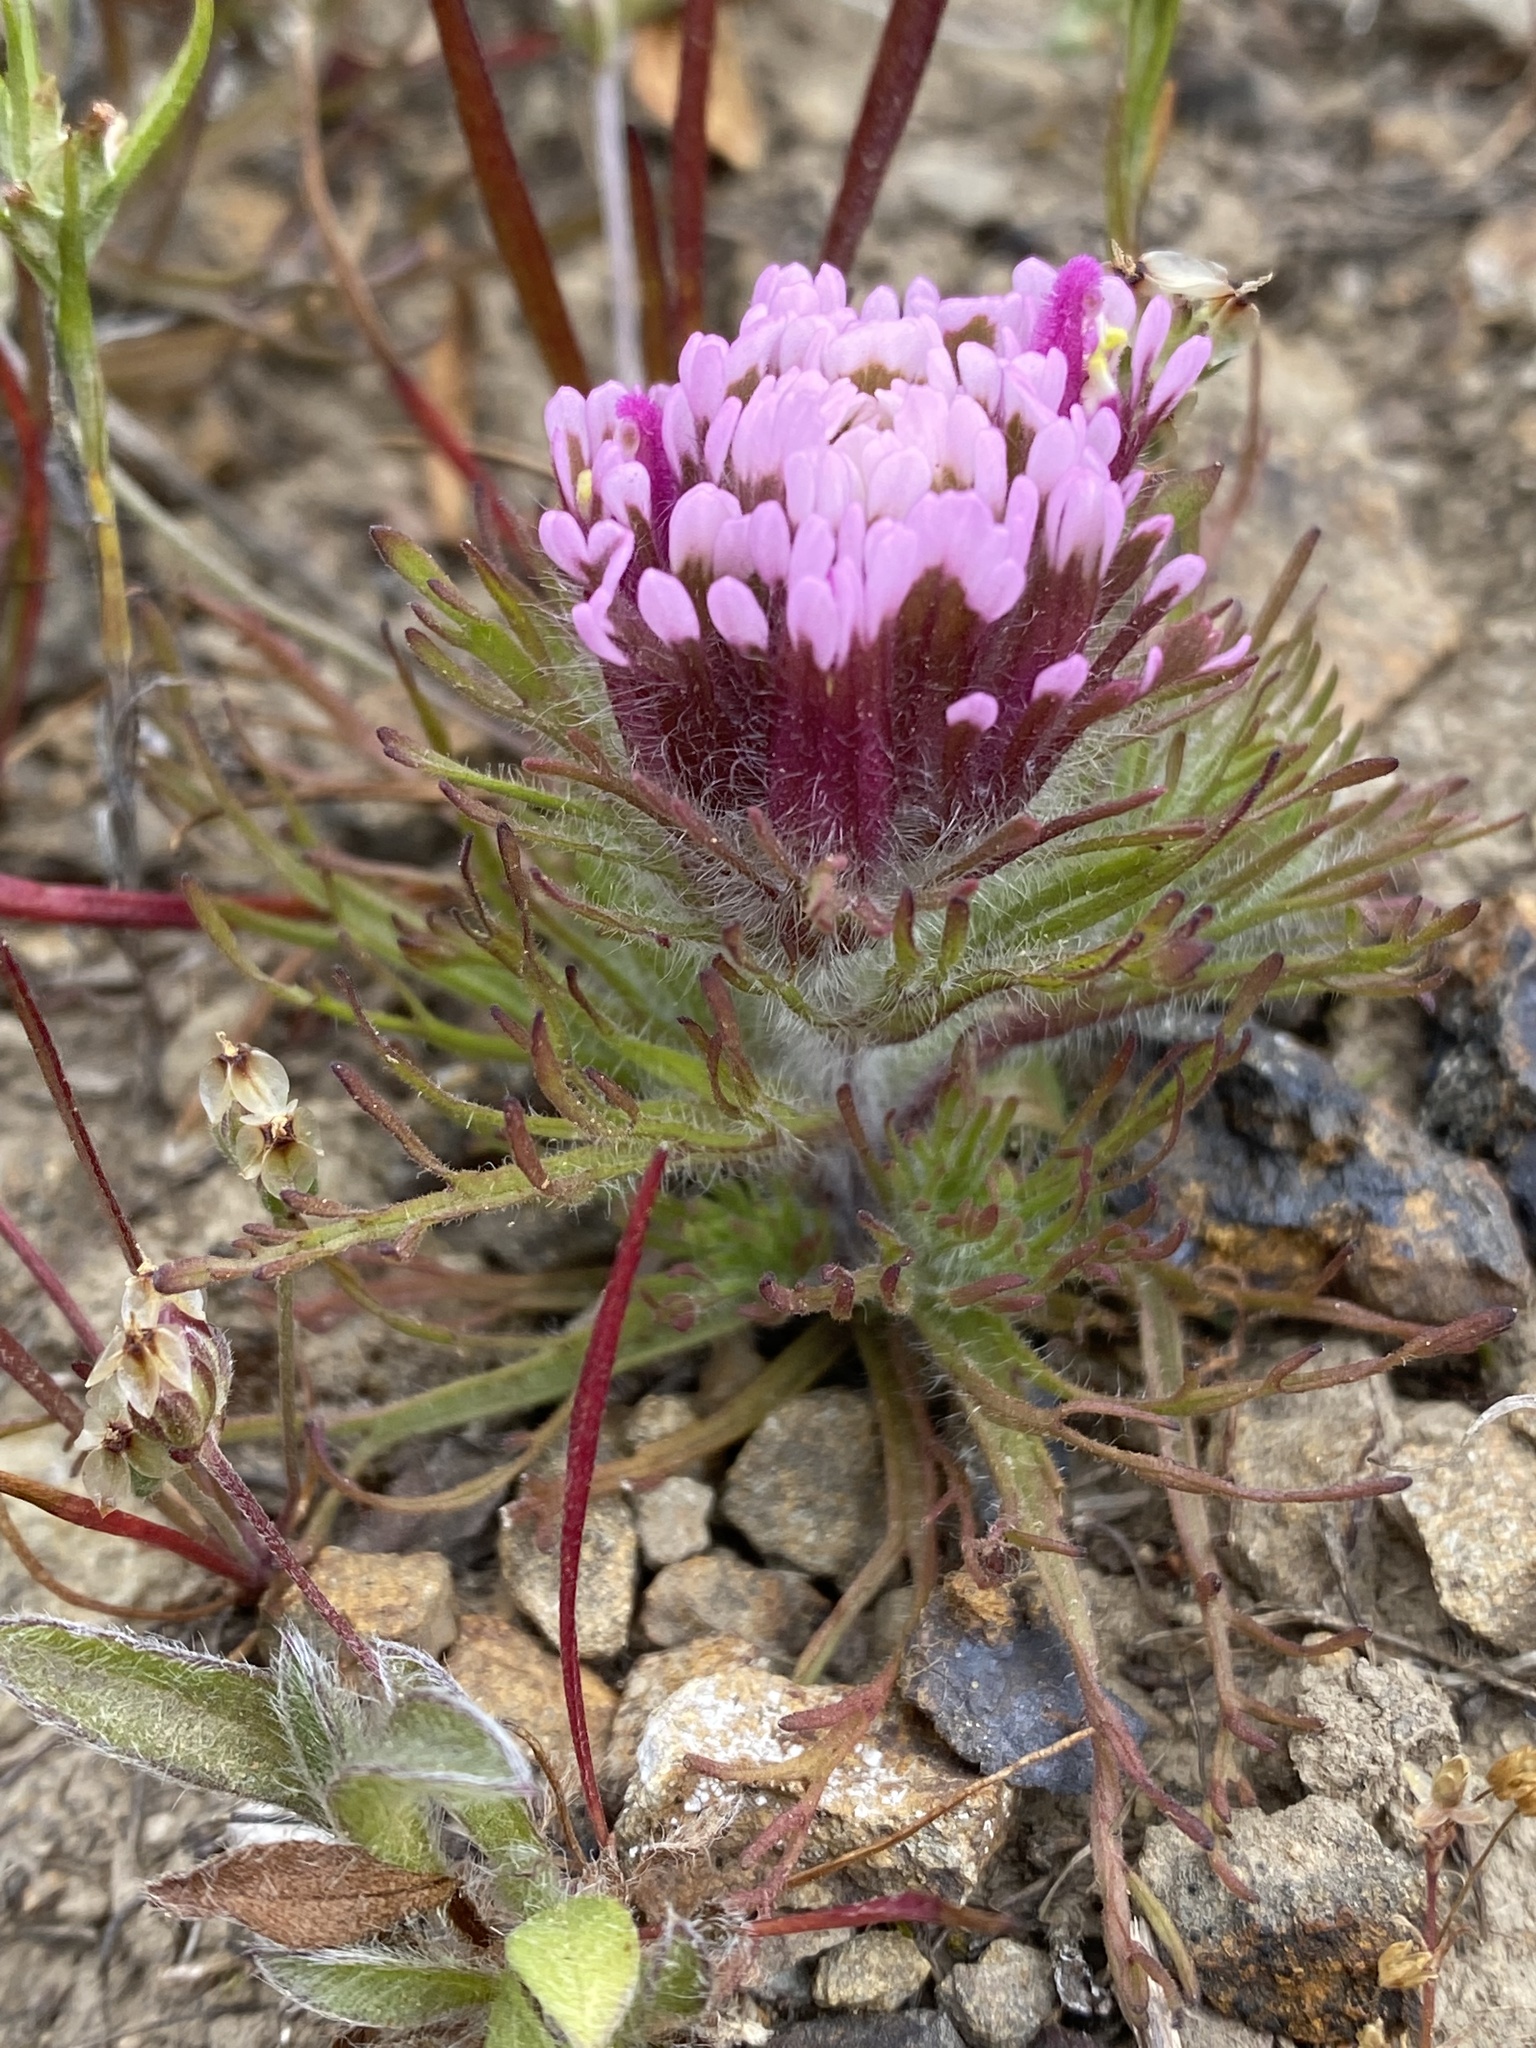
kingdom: Plantae
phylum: Tracheophyta
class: Magnoliopsida
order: Lamiales
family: Orobanchaceae
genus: Castilleja
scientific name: Castilleja exserta
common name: Purple owl-clover
